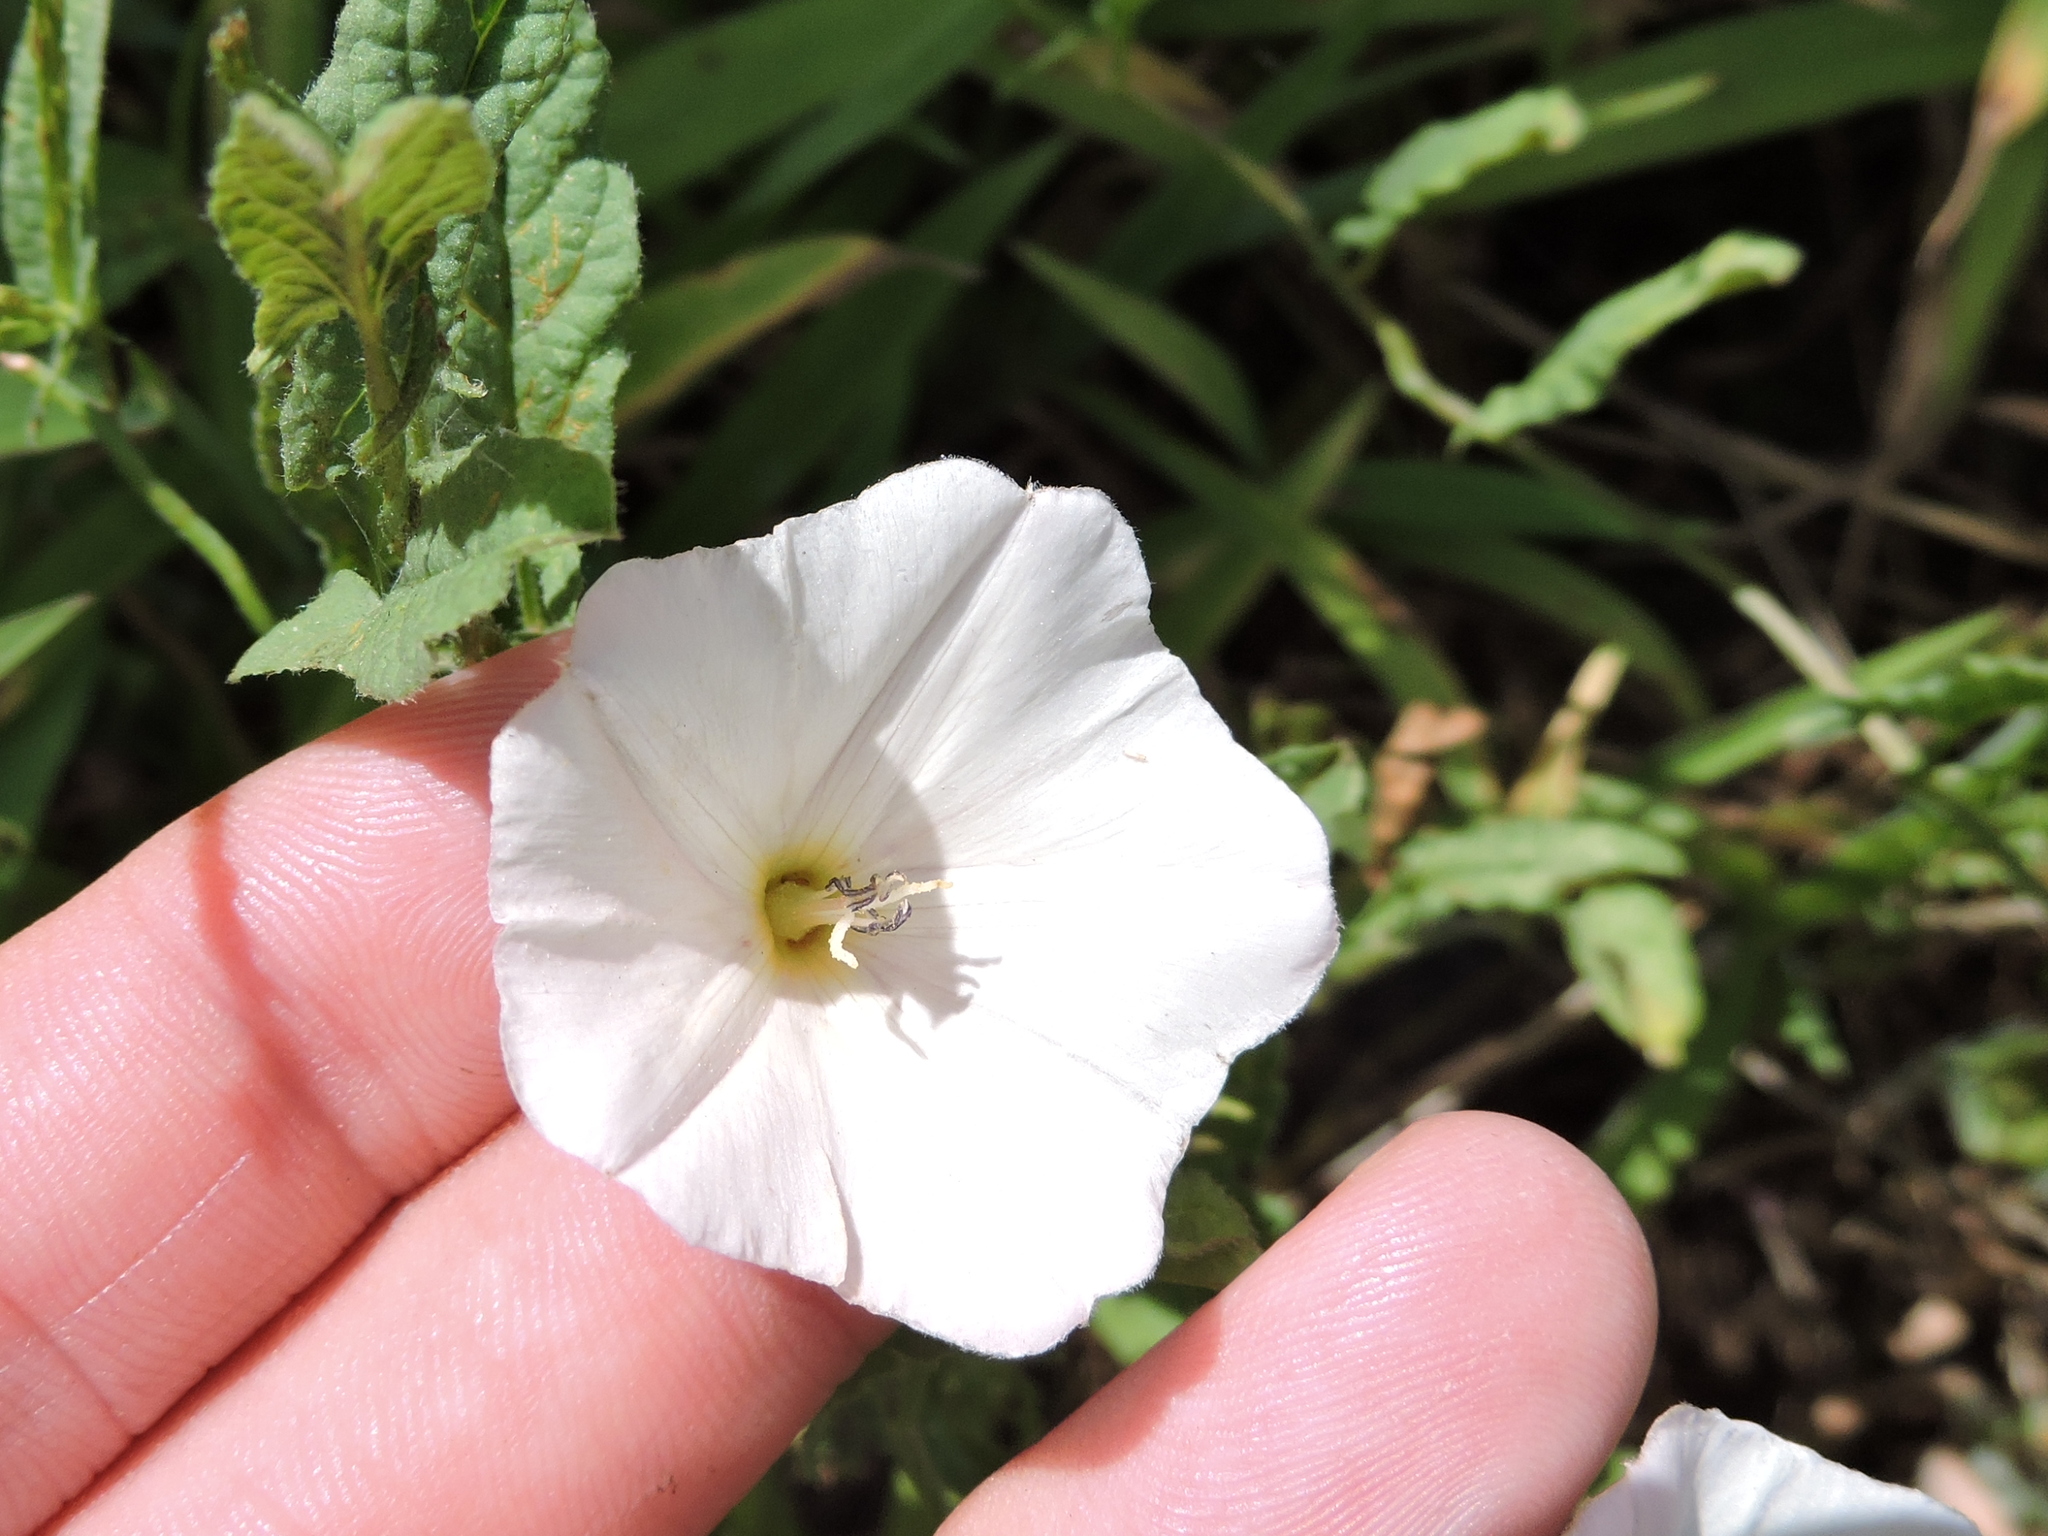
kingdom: Plantae
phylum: Tracheophyta
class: Magnoliopsida
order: Solanales
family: Convolvulaceae
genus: Convolvulus
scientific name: Convolvulus arvensis
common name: Field bindweed
